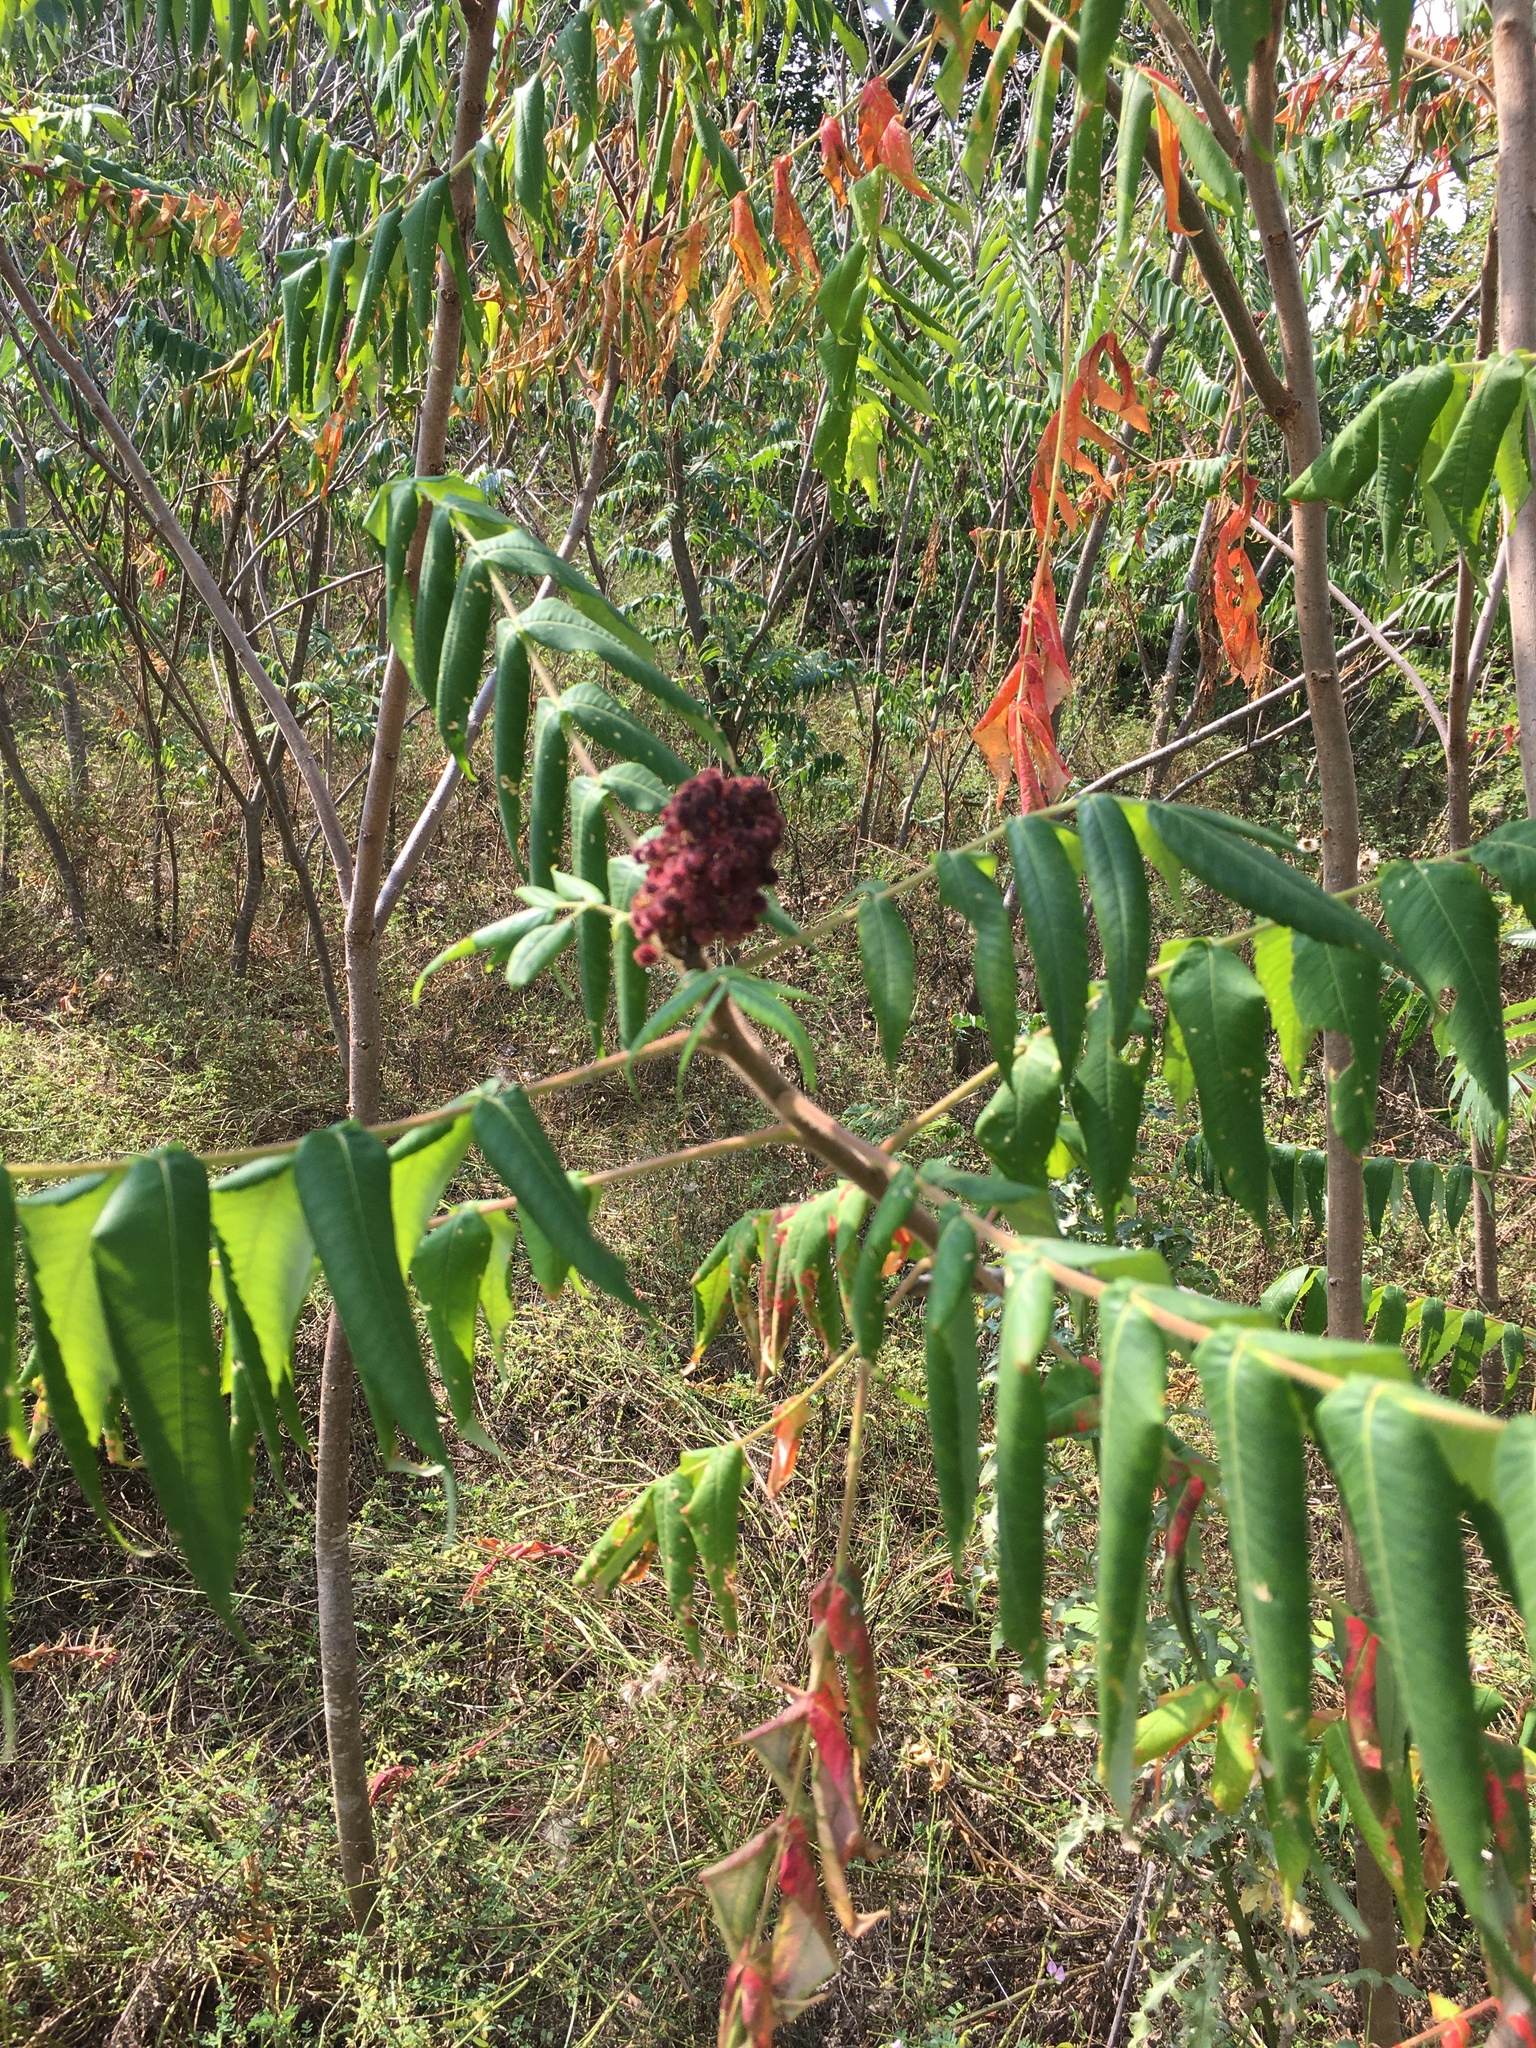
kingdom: Plantae
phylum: Tracheophyta
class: Magnoliopsida
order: Sapindales
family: Anacardiaceae
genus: Rhus
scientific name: Rhus typhina
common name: Staghorn sumac
